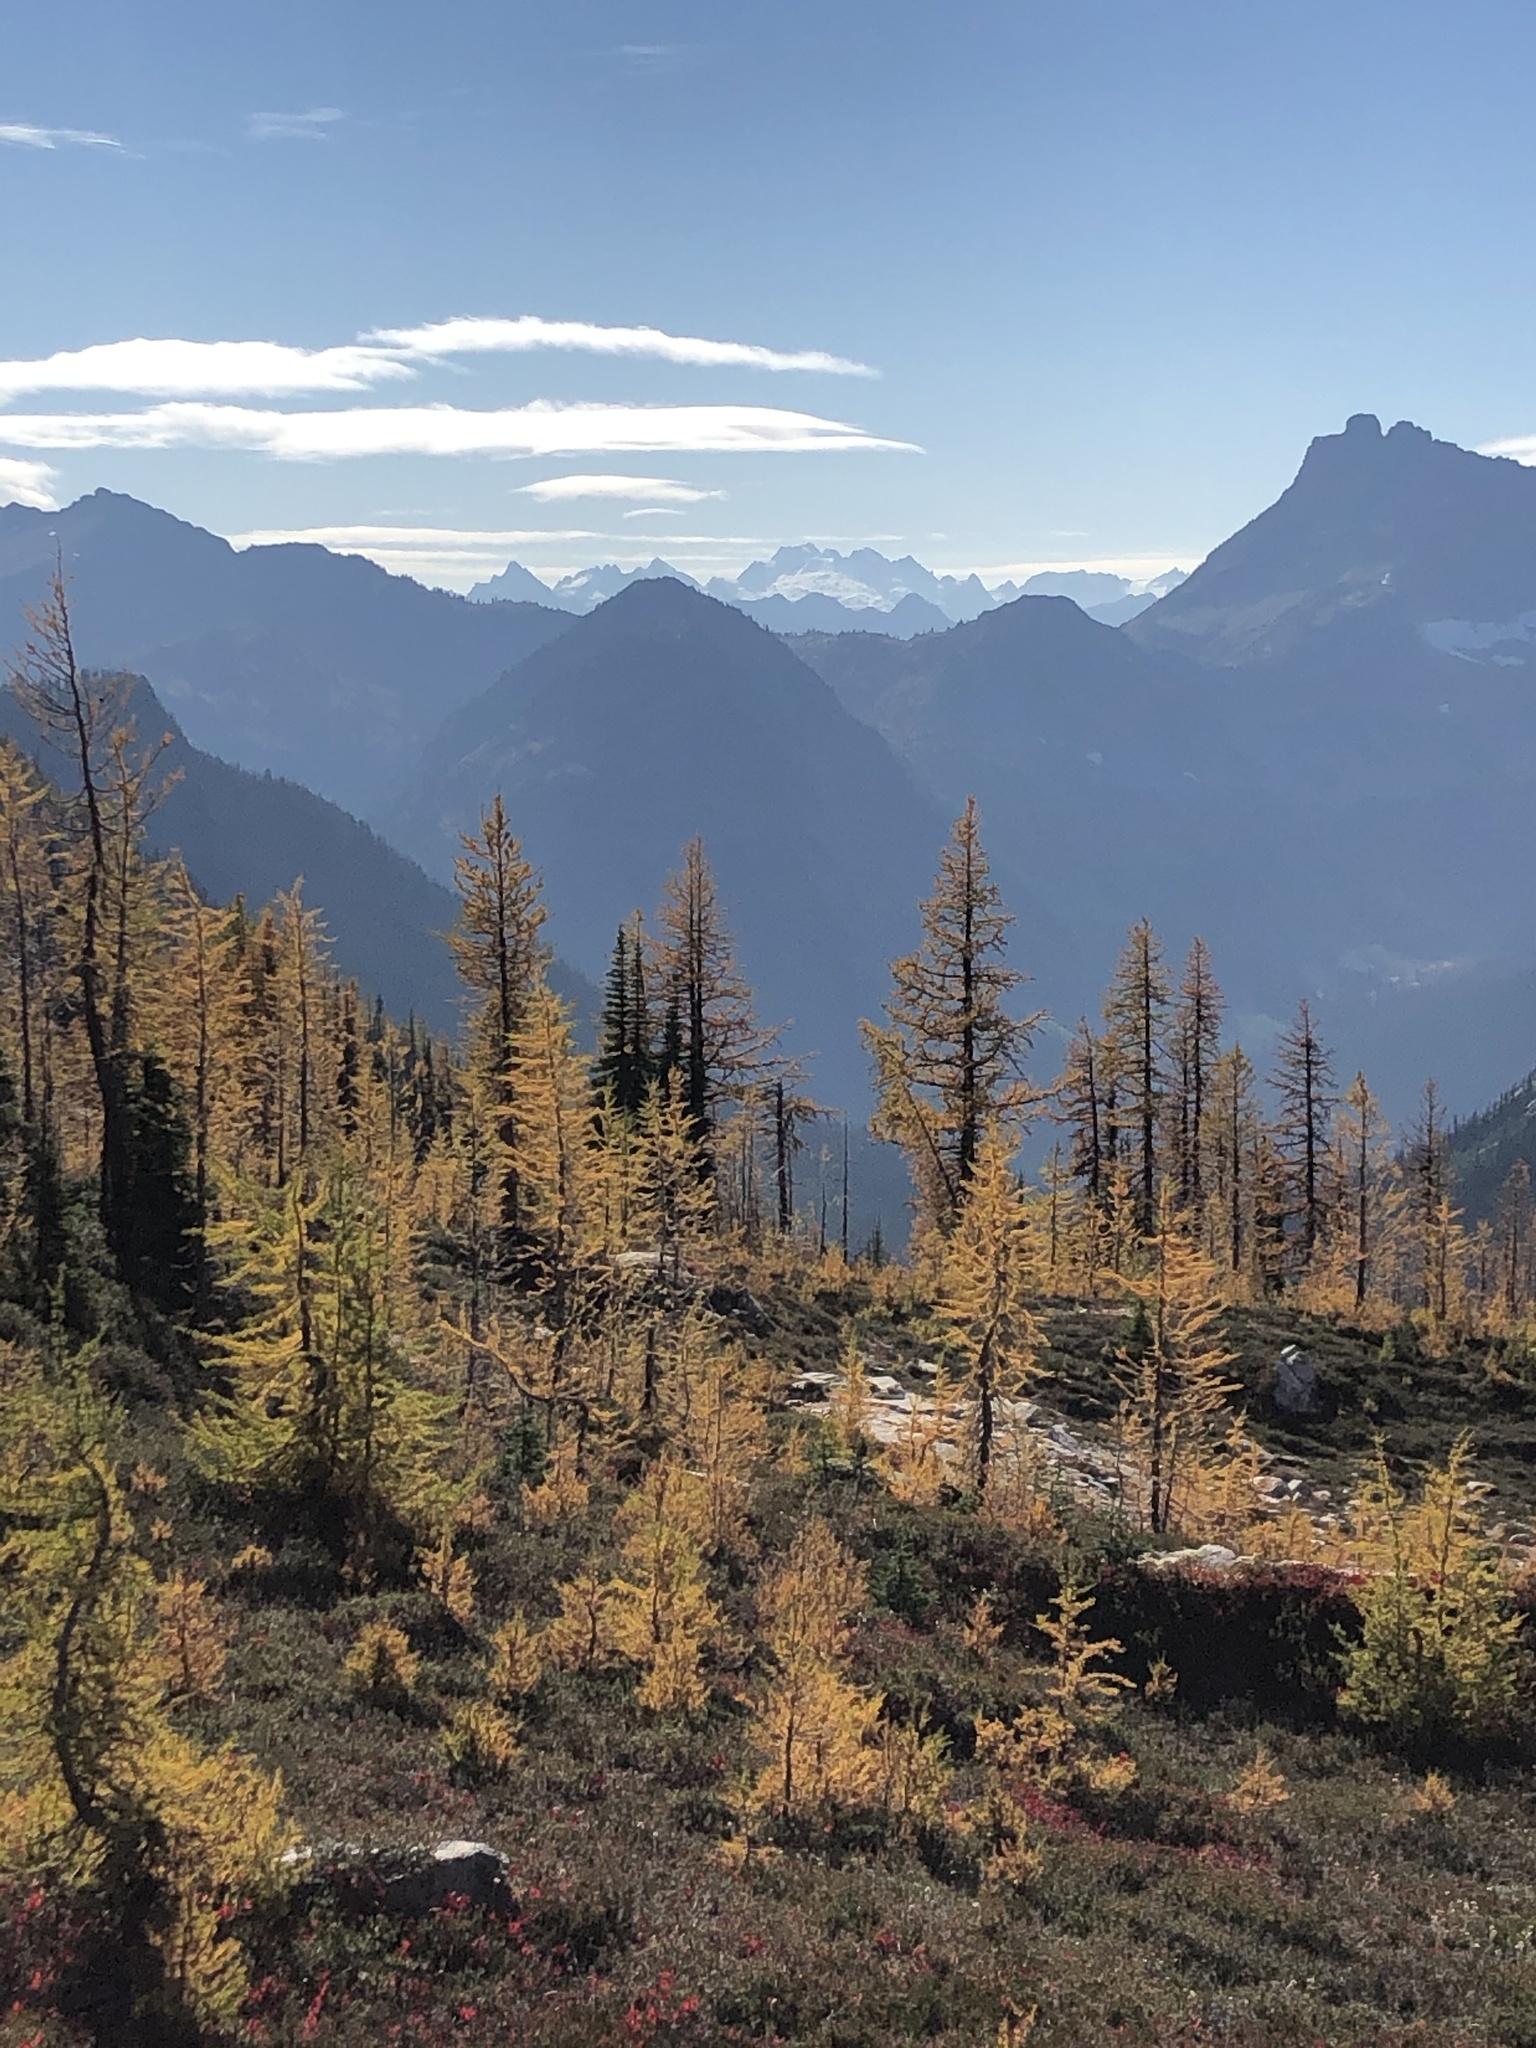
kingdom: Plantae
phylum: Tracheophyta
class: Pinopsida
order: Pinales
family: Pinaceae
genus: Larix
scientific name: Larix lyallii
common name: Alpine larch
